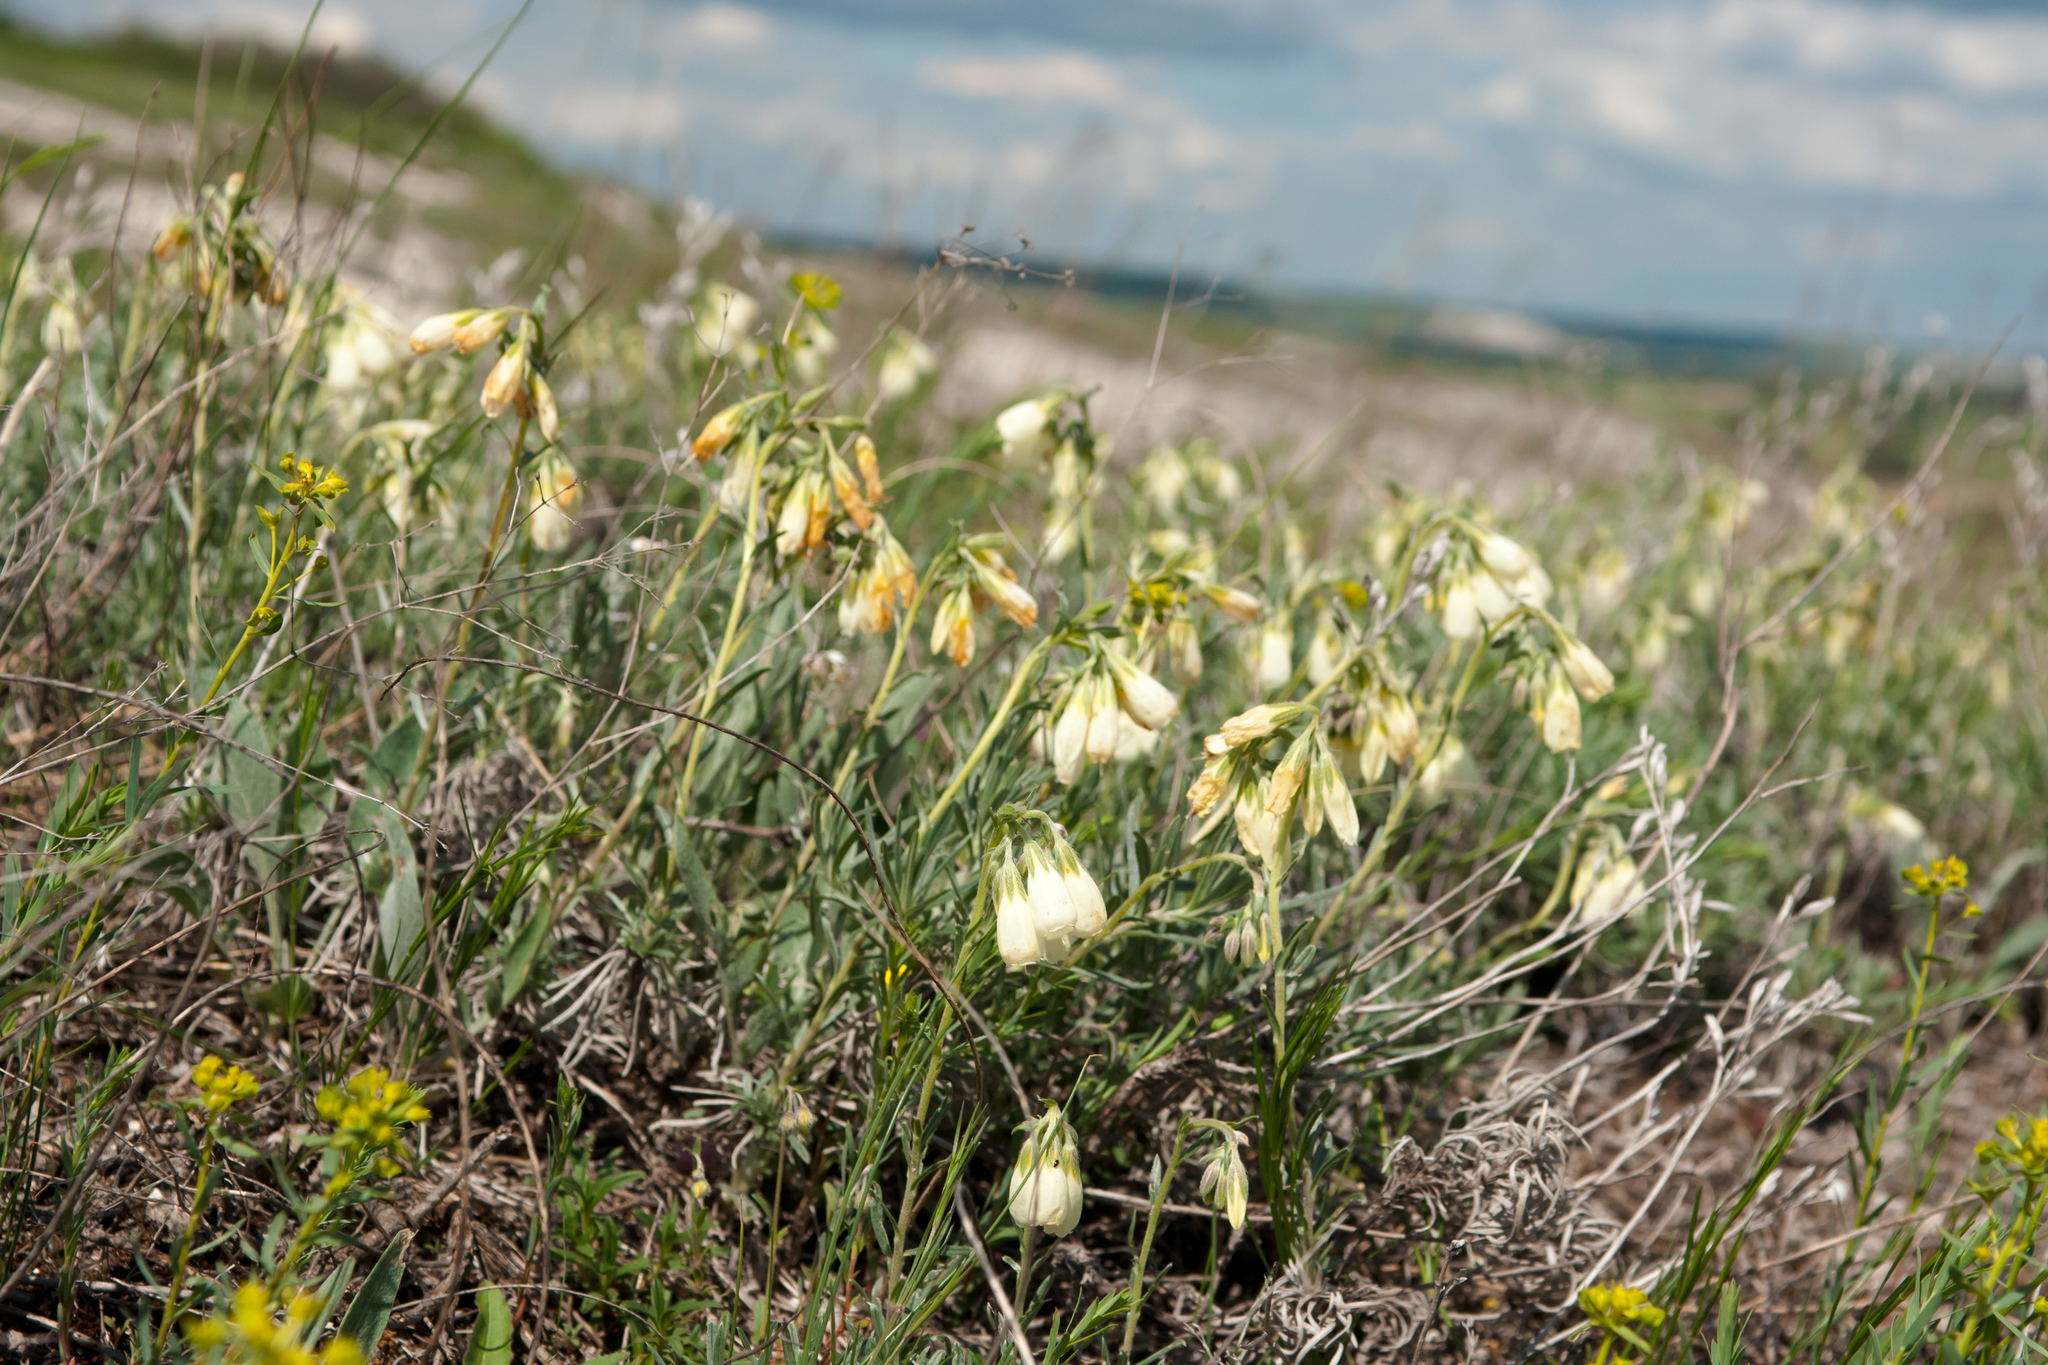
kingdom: Plantae
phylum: Tracheophyta
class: Magnoliopsida
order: Boraginales
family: Boraginaceae
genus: Onosma
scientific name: Onosma simplicissima
